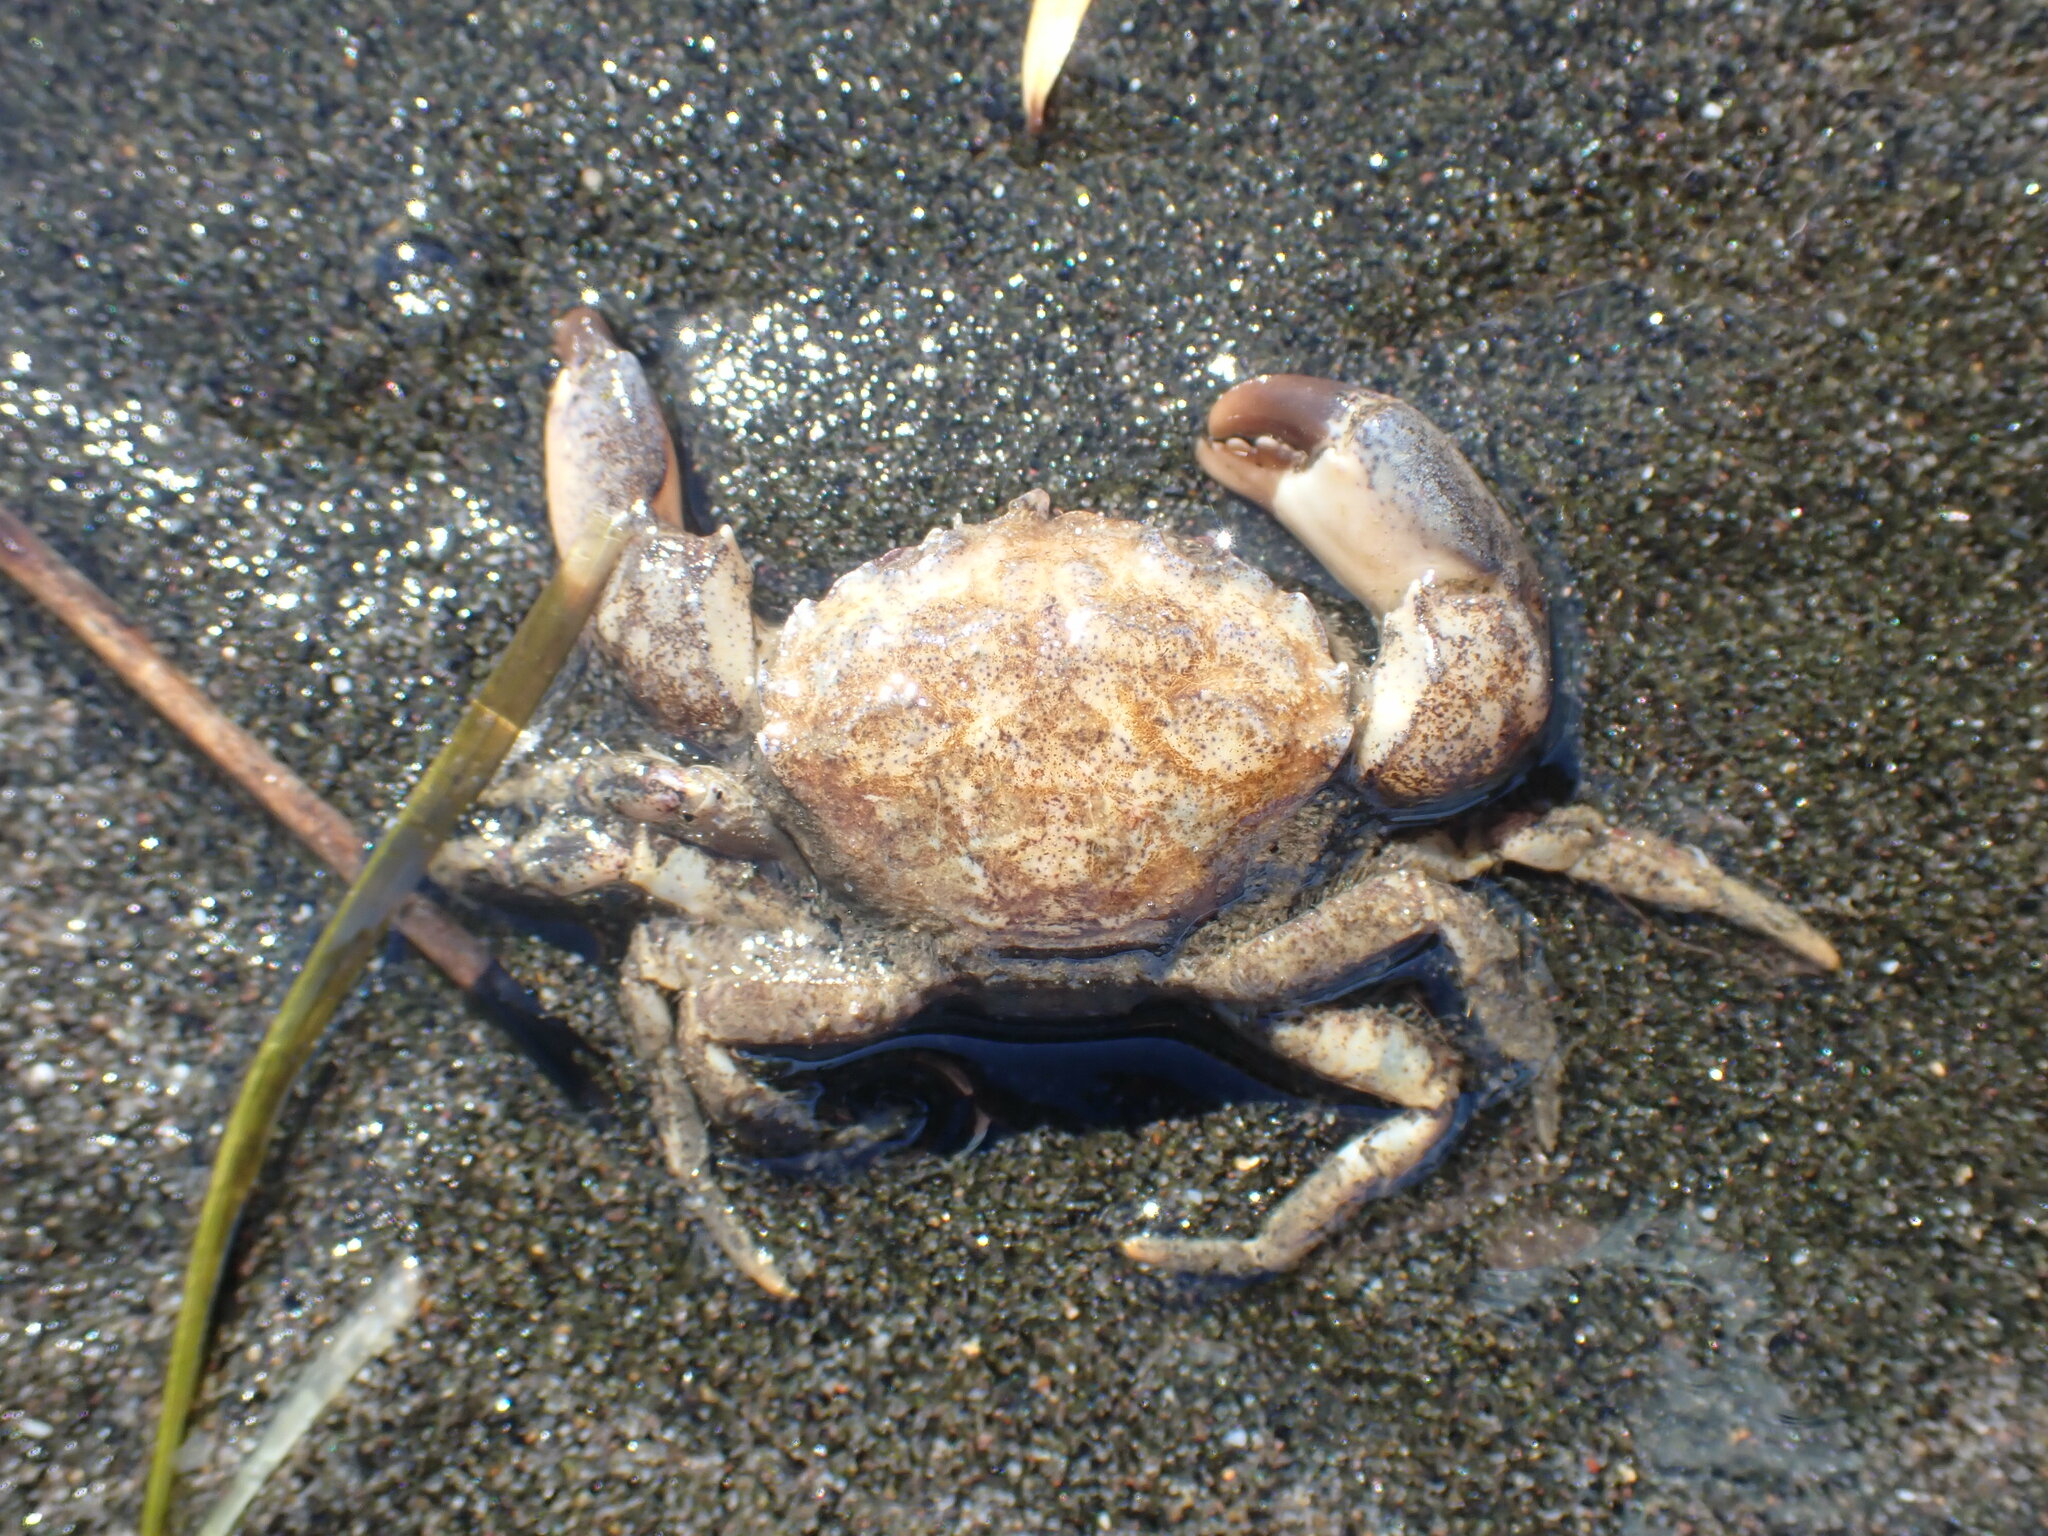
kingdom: Animalia
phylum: Arthropoda
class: Malacostraca
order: Decapoda
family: Pilumnidae
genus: Pilumnopeus
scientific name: Pilumnopeus serratifrons
